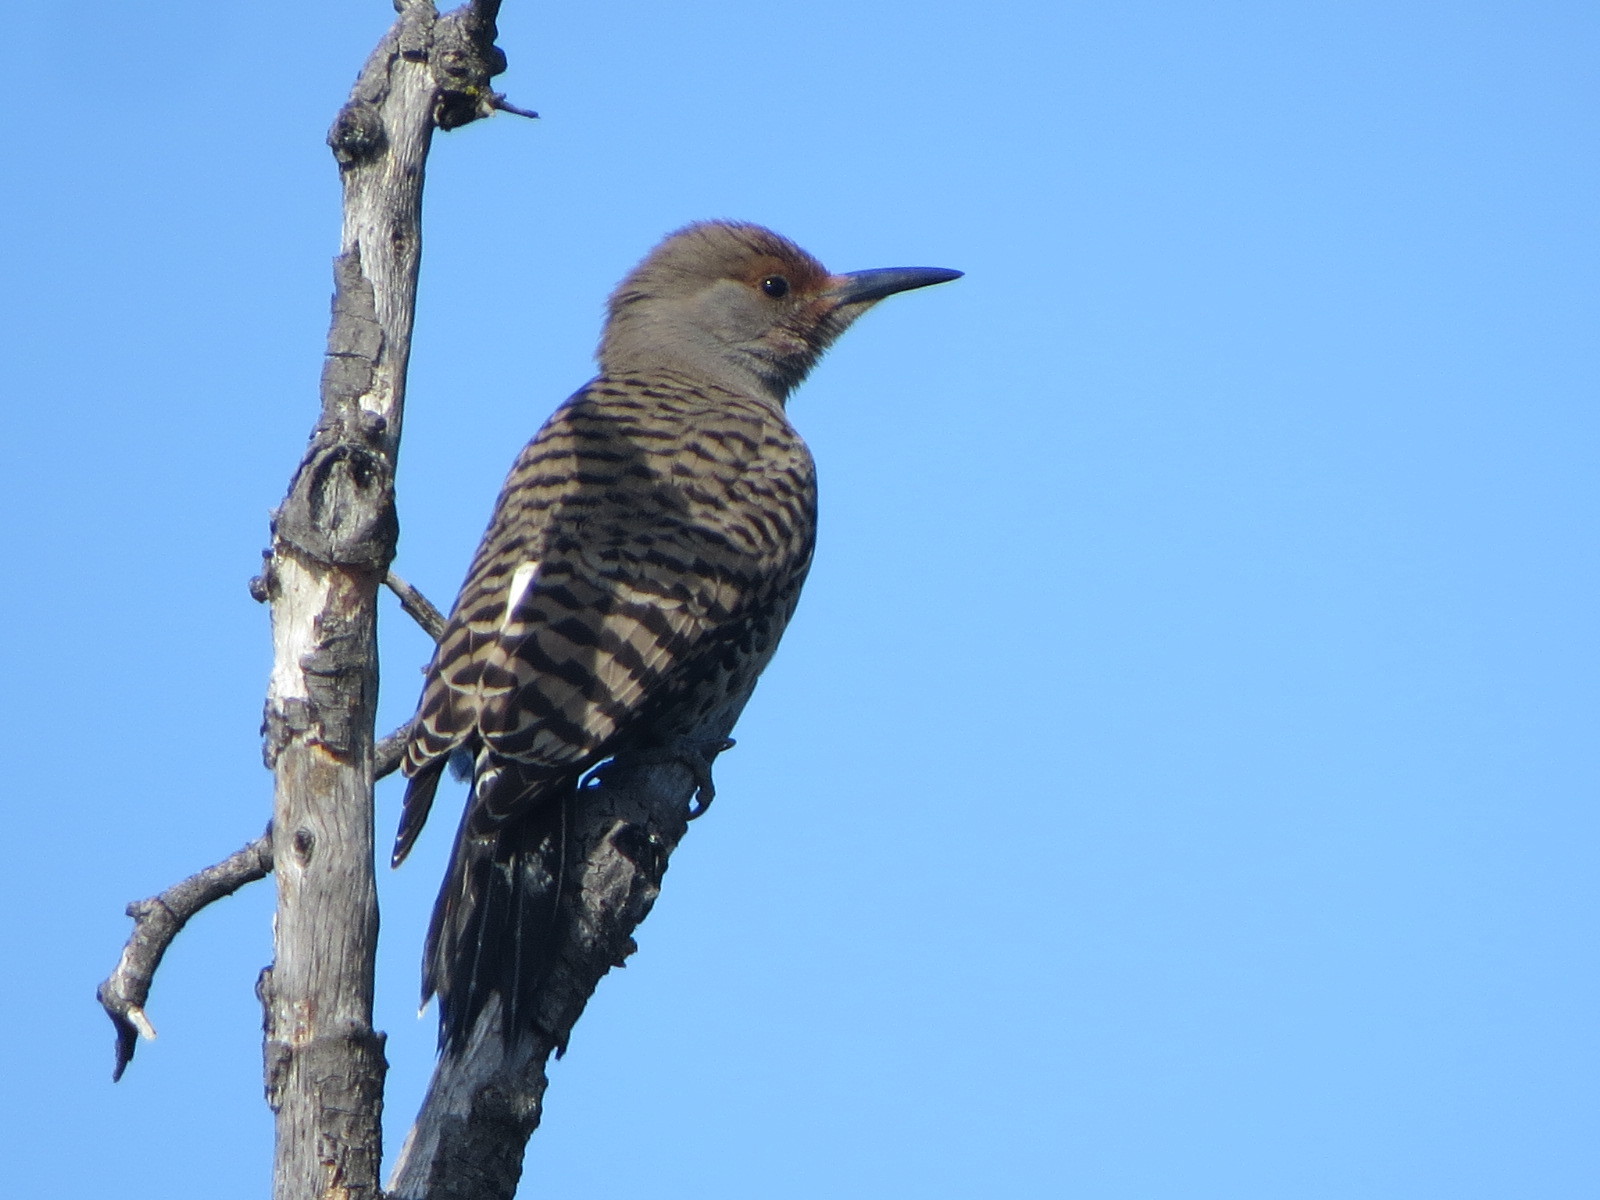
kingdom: Animalia
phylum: Chordata
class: Aves
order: Piciformes
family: Picidae
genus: Colaptes
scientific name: Colaptes auratus
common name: Northern flicker
